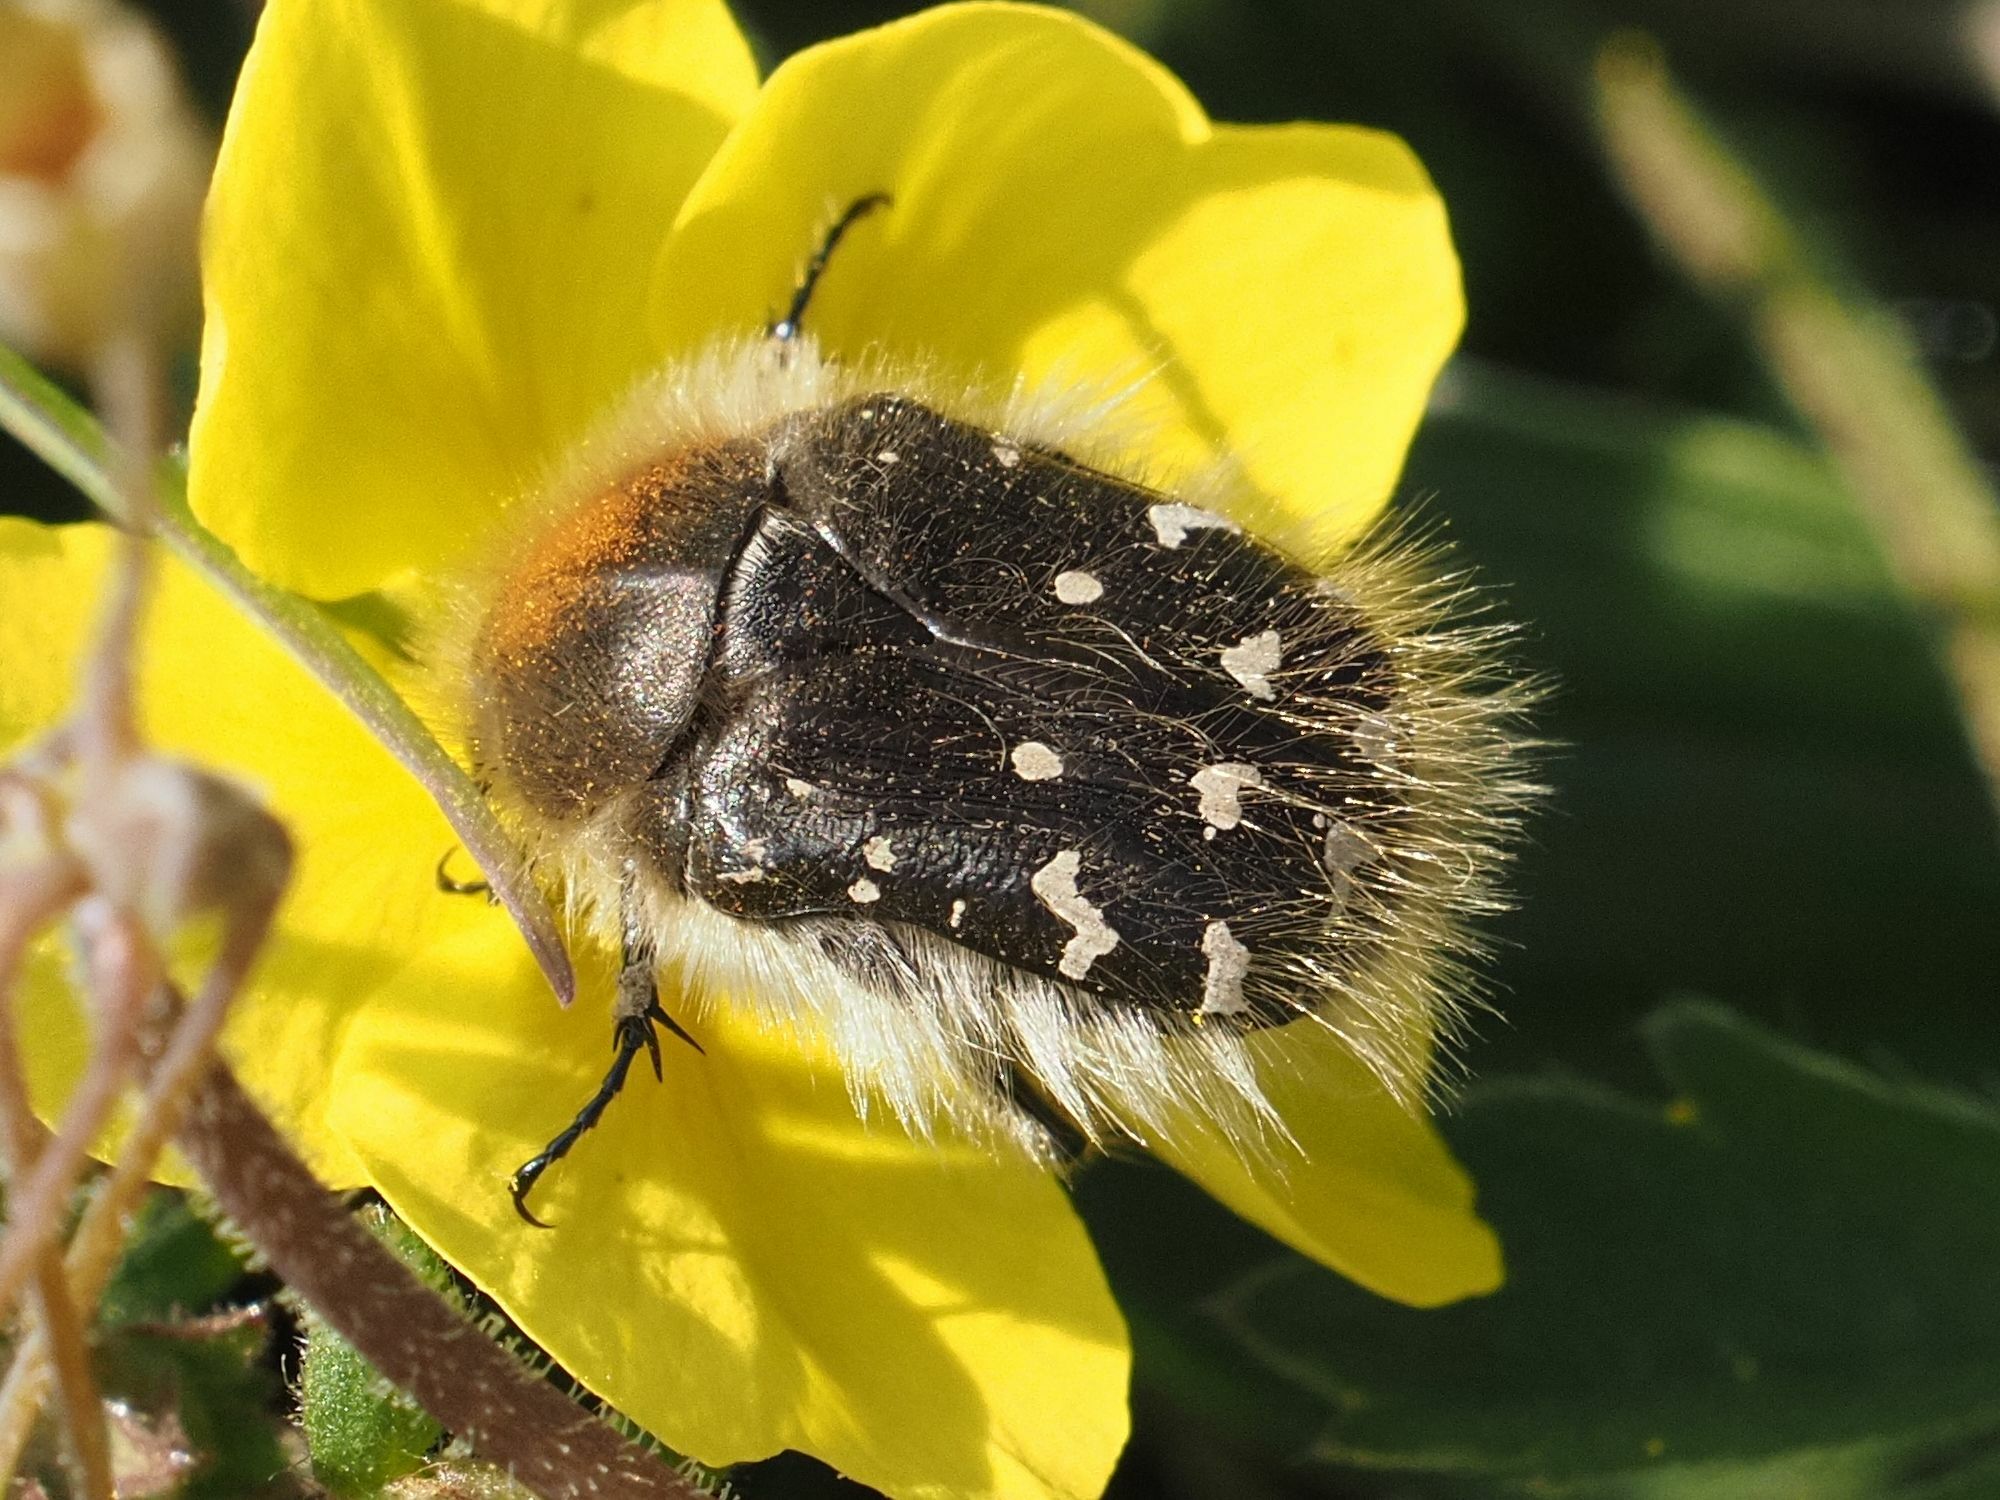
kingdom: Animalia
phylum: Arthropoda
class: Insecta
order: Coleoptera
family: Scarabaeidae
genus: Tropinota
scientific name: Tropinota hirta
